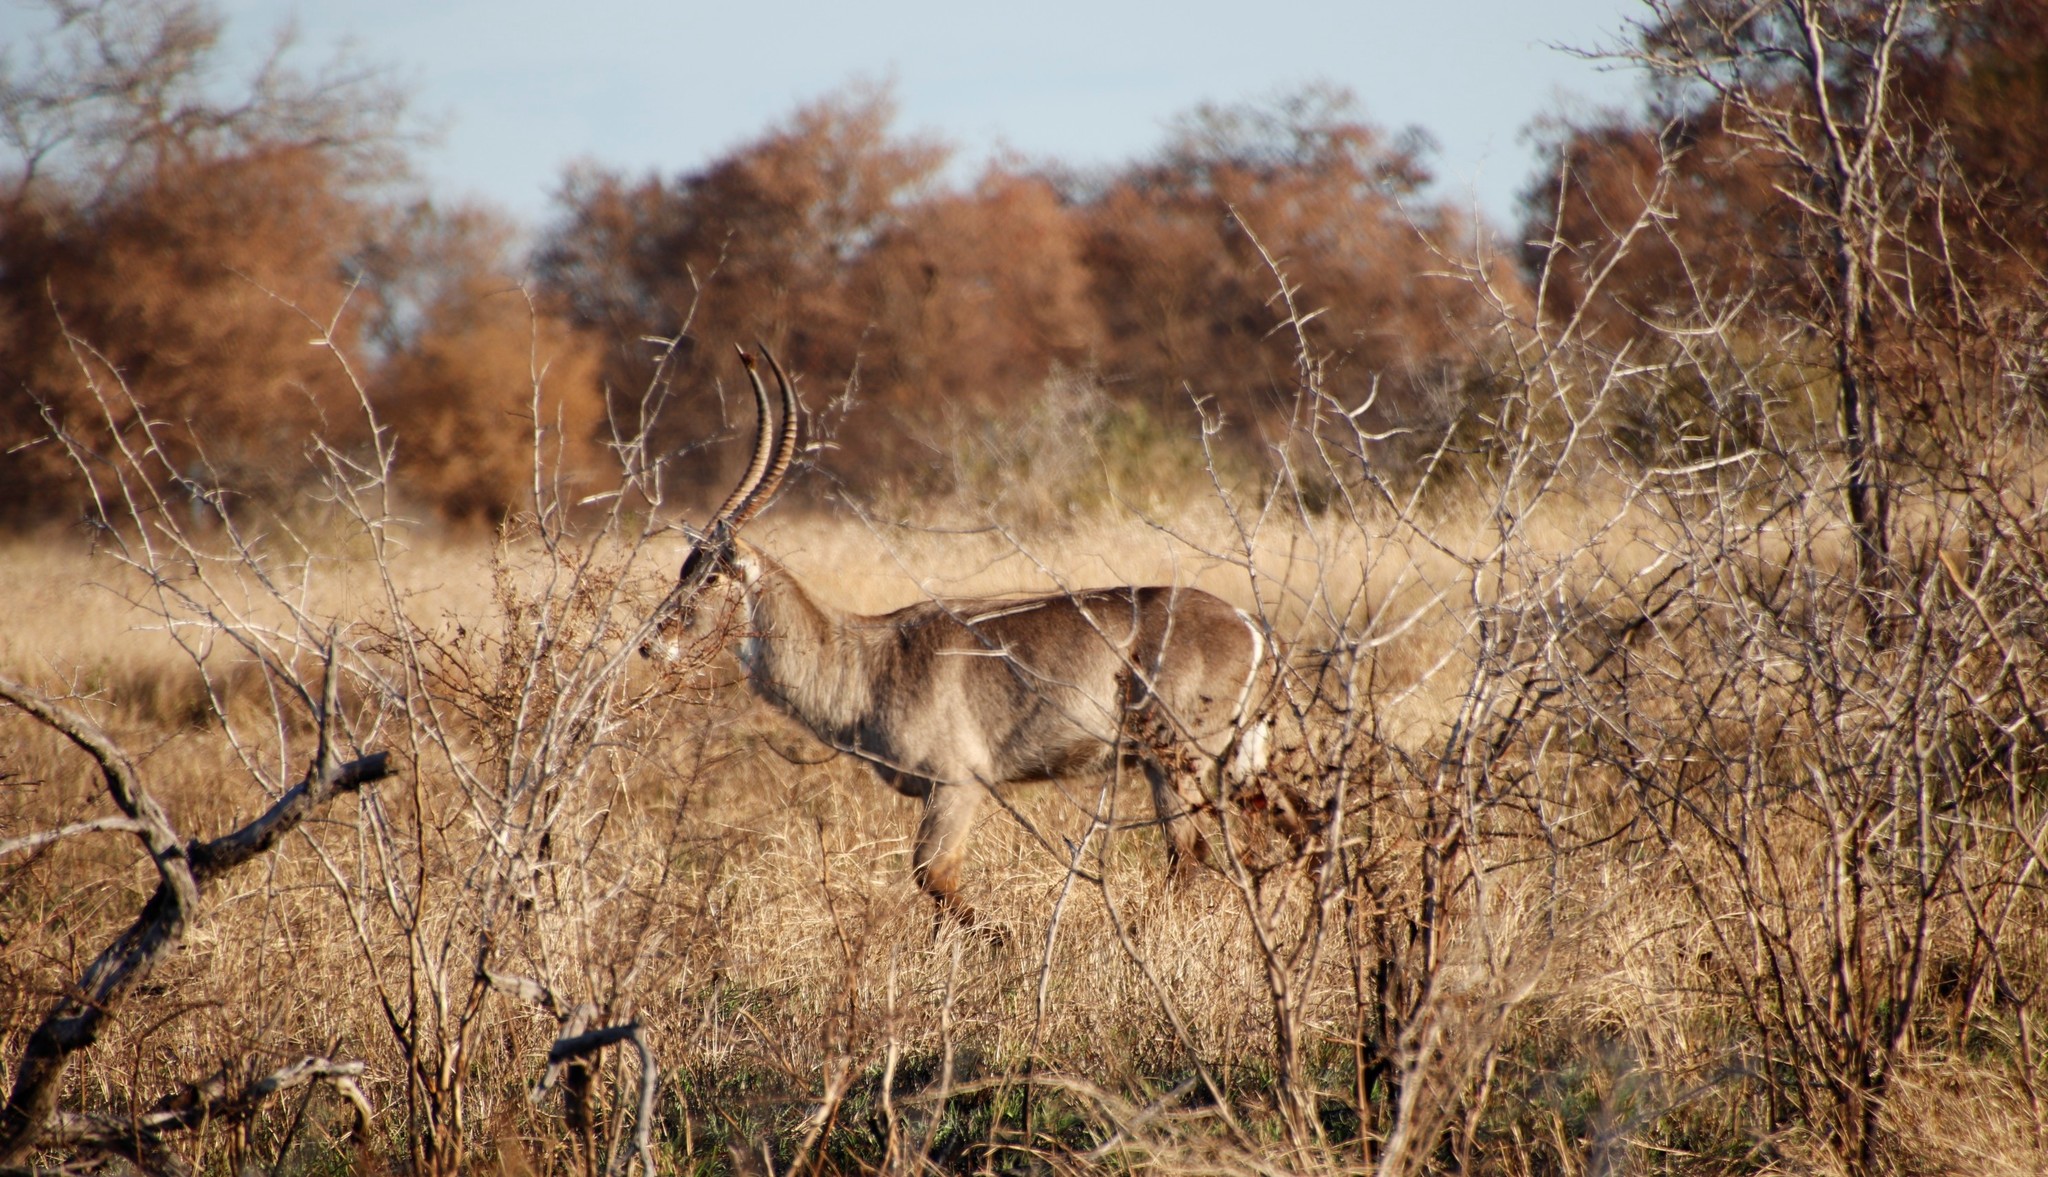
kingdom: Animalia
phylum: Chordata
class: Mammalia
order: Artiodactyla
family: Bovidae
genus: Kobus
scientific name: Kobus ellipsiprymnus
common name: Waterbuck
